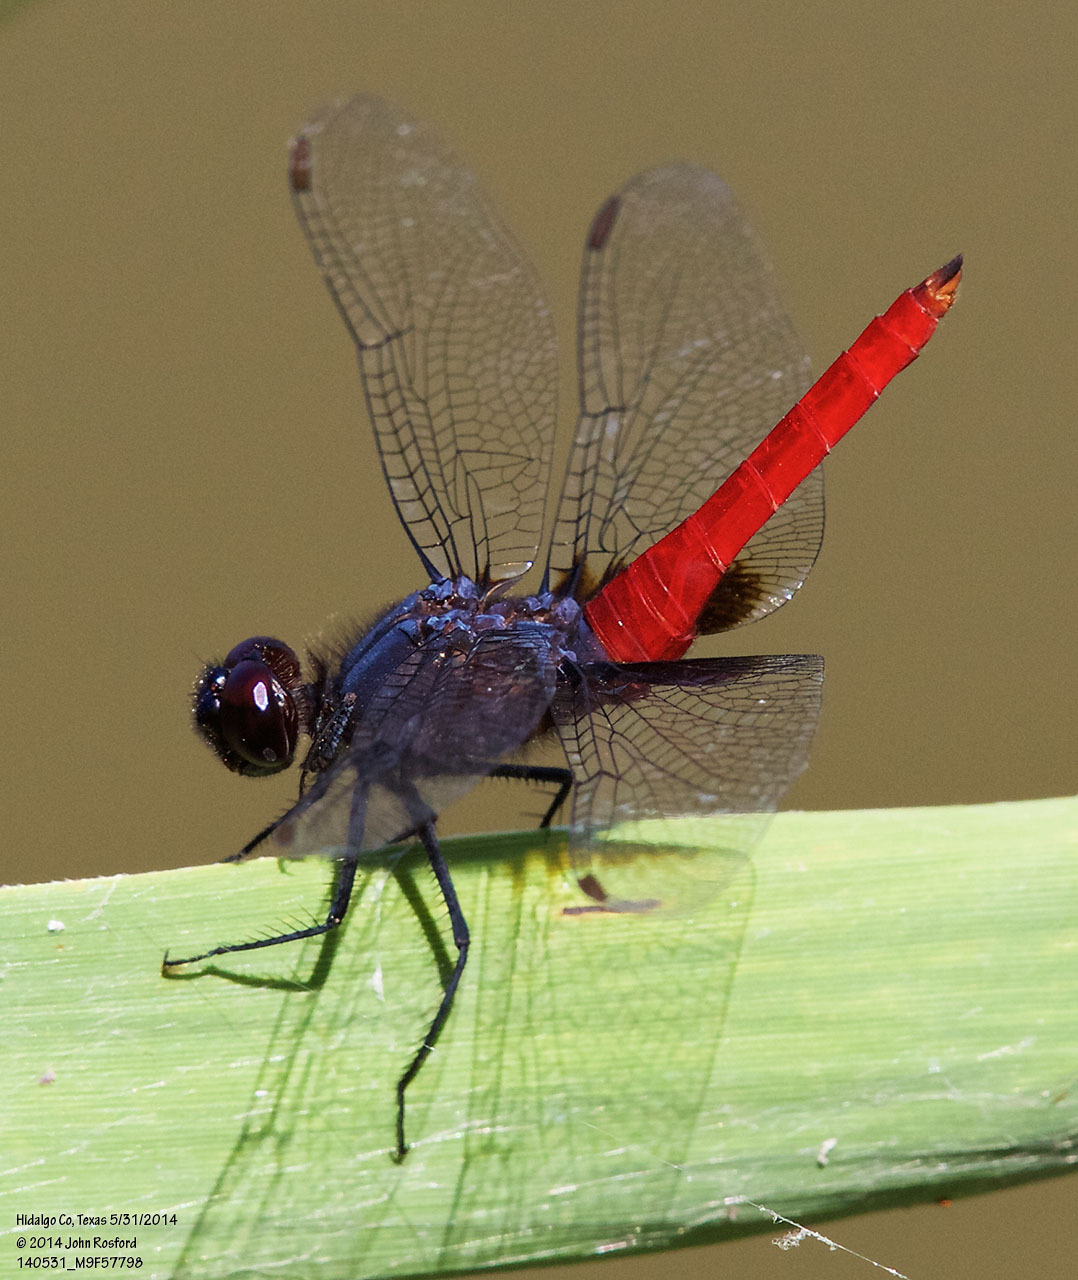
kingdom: Animalia
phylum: Arthropoda
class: Insecta
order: Odonata
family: Libellulidae
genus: Planiplax
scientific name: Planiplax sanguiniventris
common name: Mexican scarlet-tail
